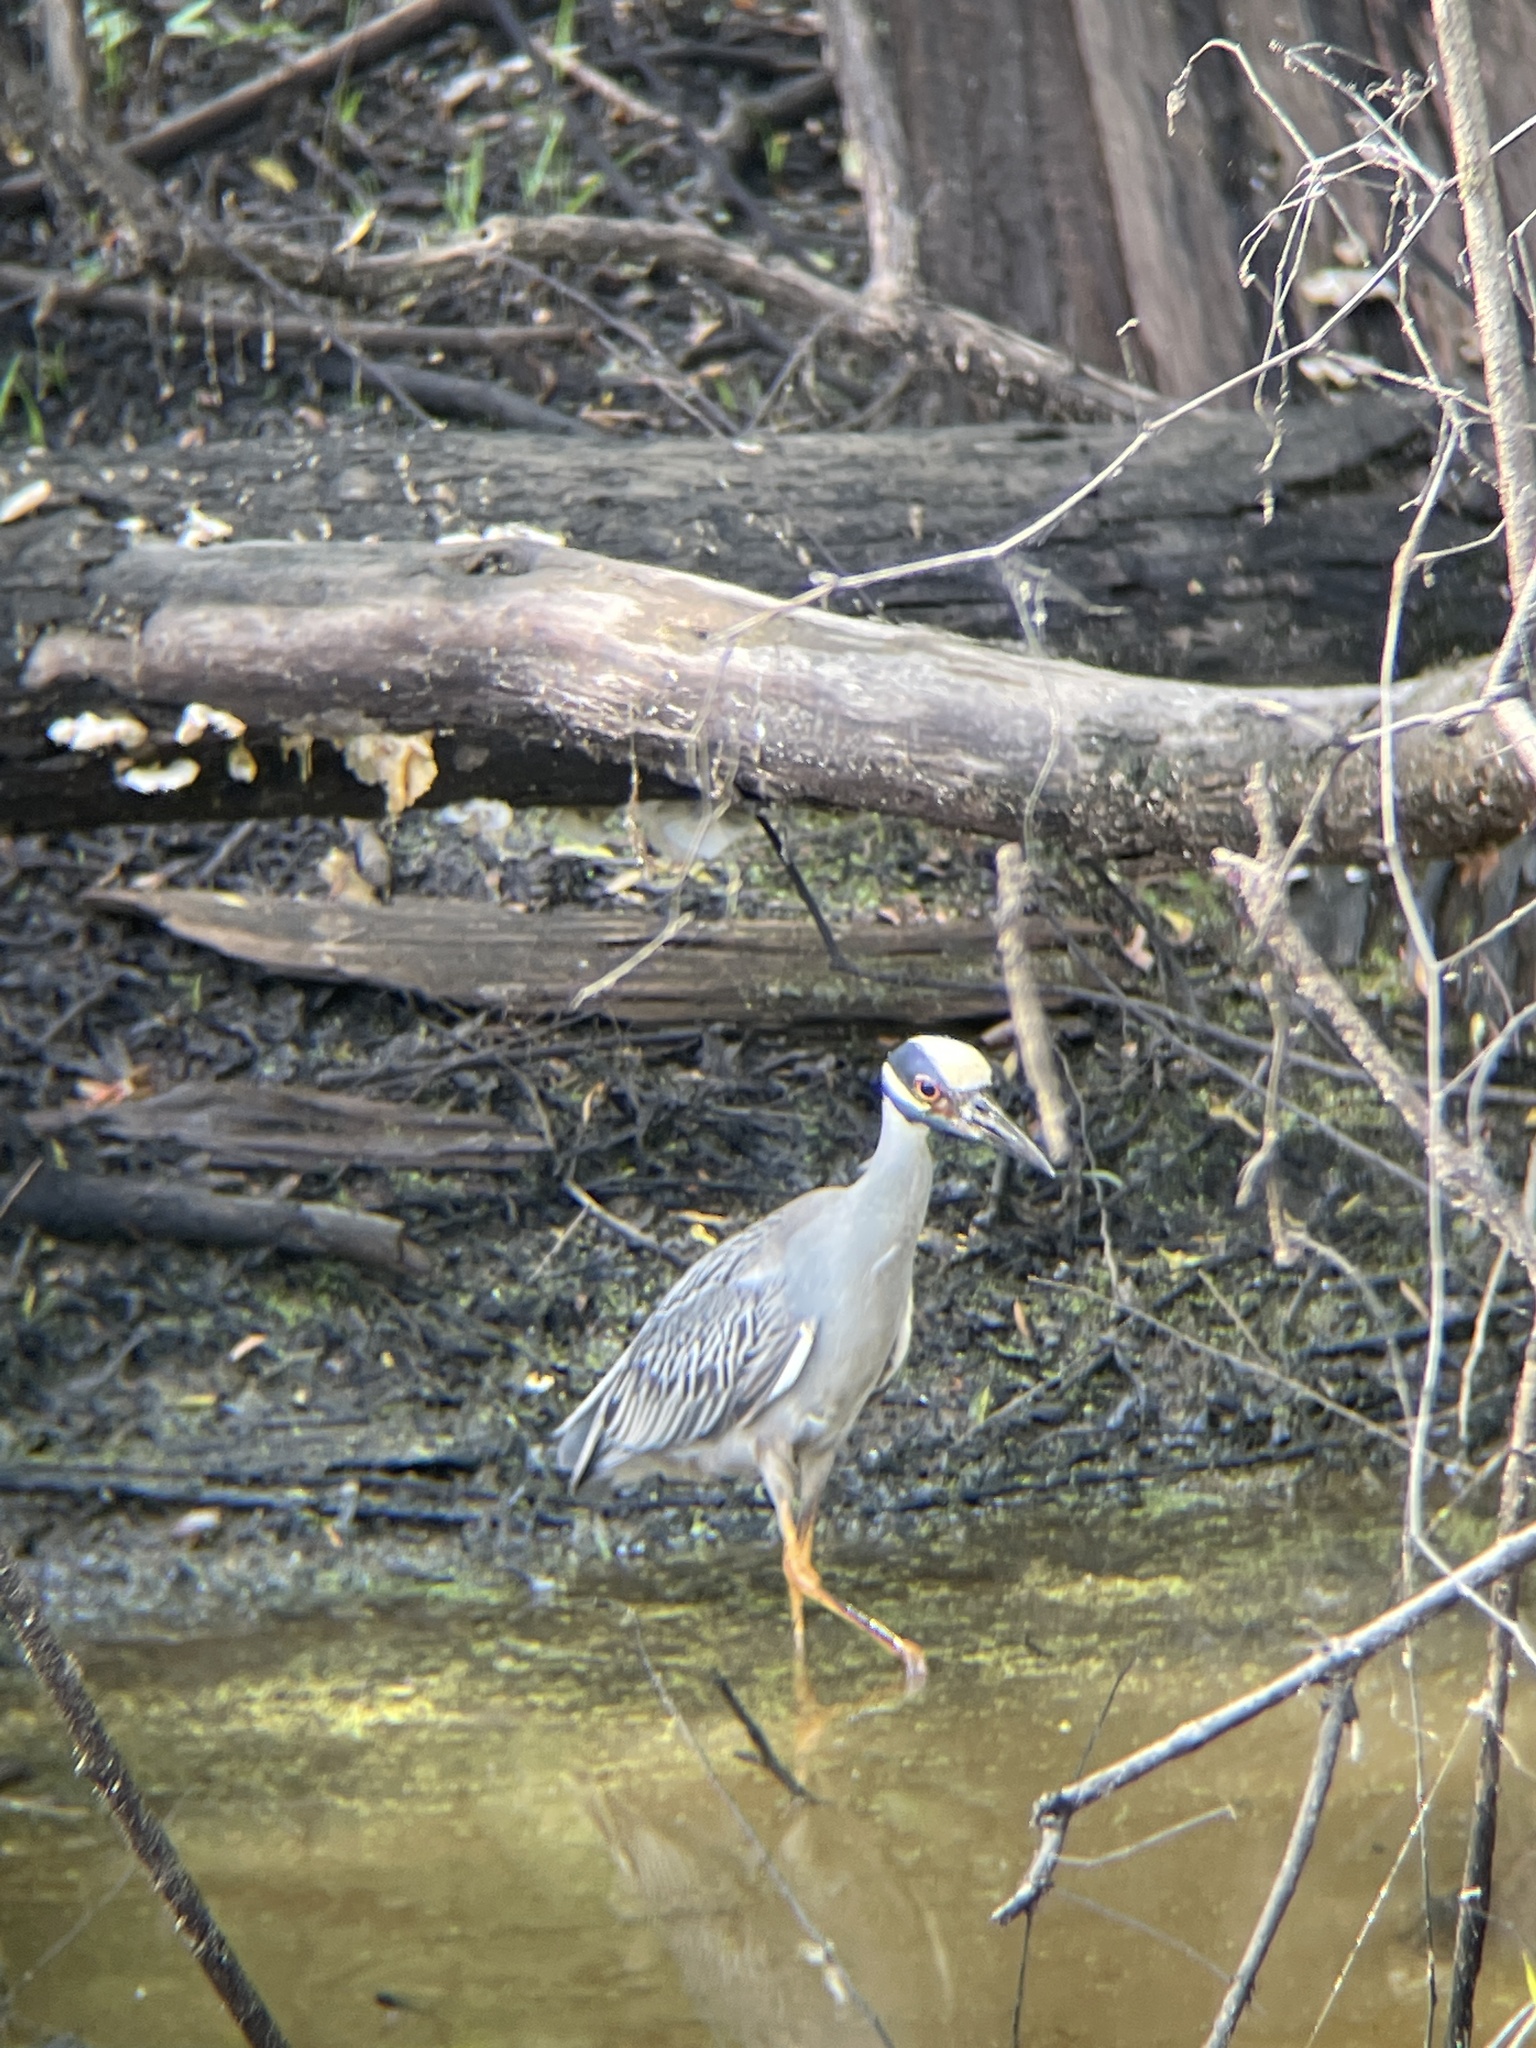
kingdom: Animalia
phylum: Chordata
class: Aves
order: Pelecaniformes
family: Ardeidae
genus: Nyctanassa
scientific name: Nyctanassa violacea
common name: Yellow-crowned night heron
